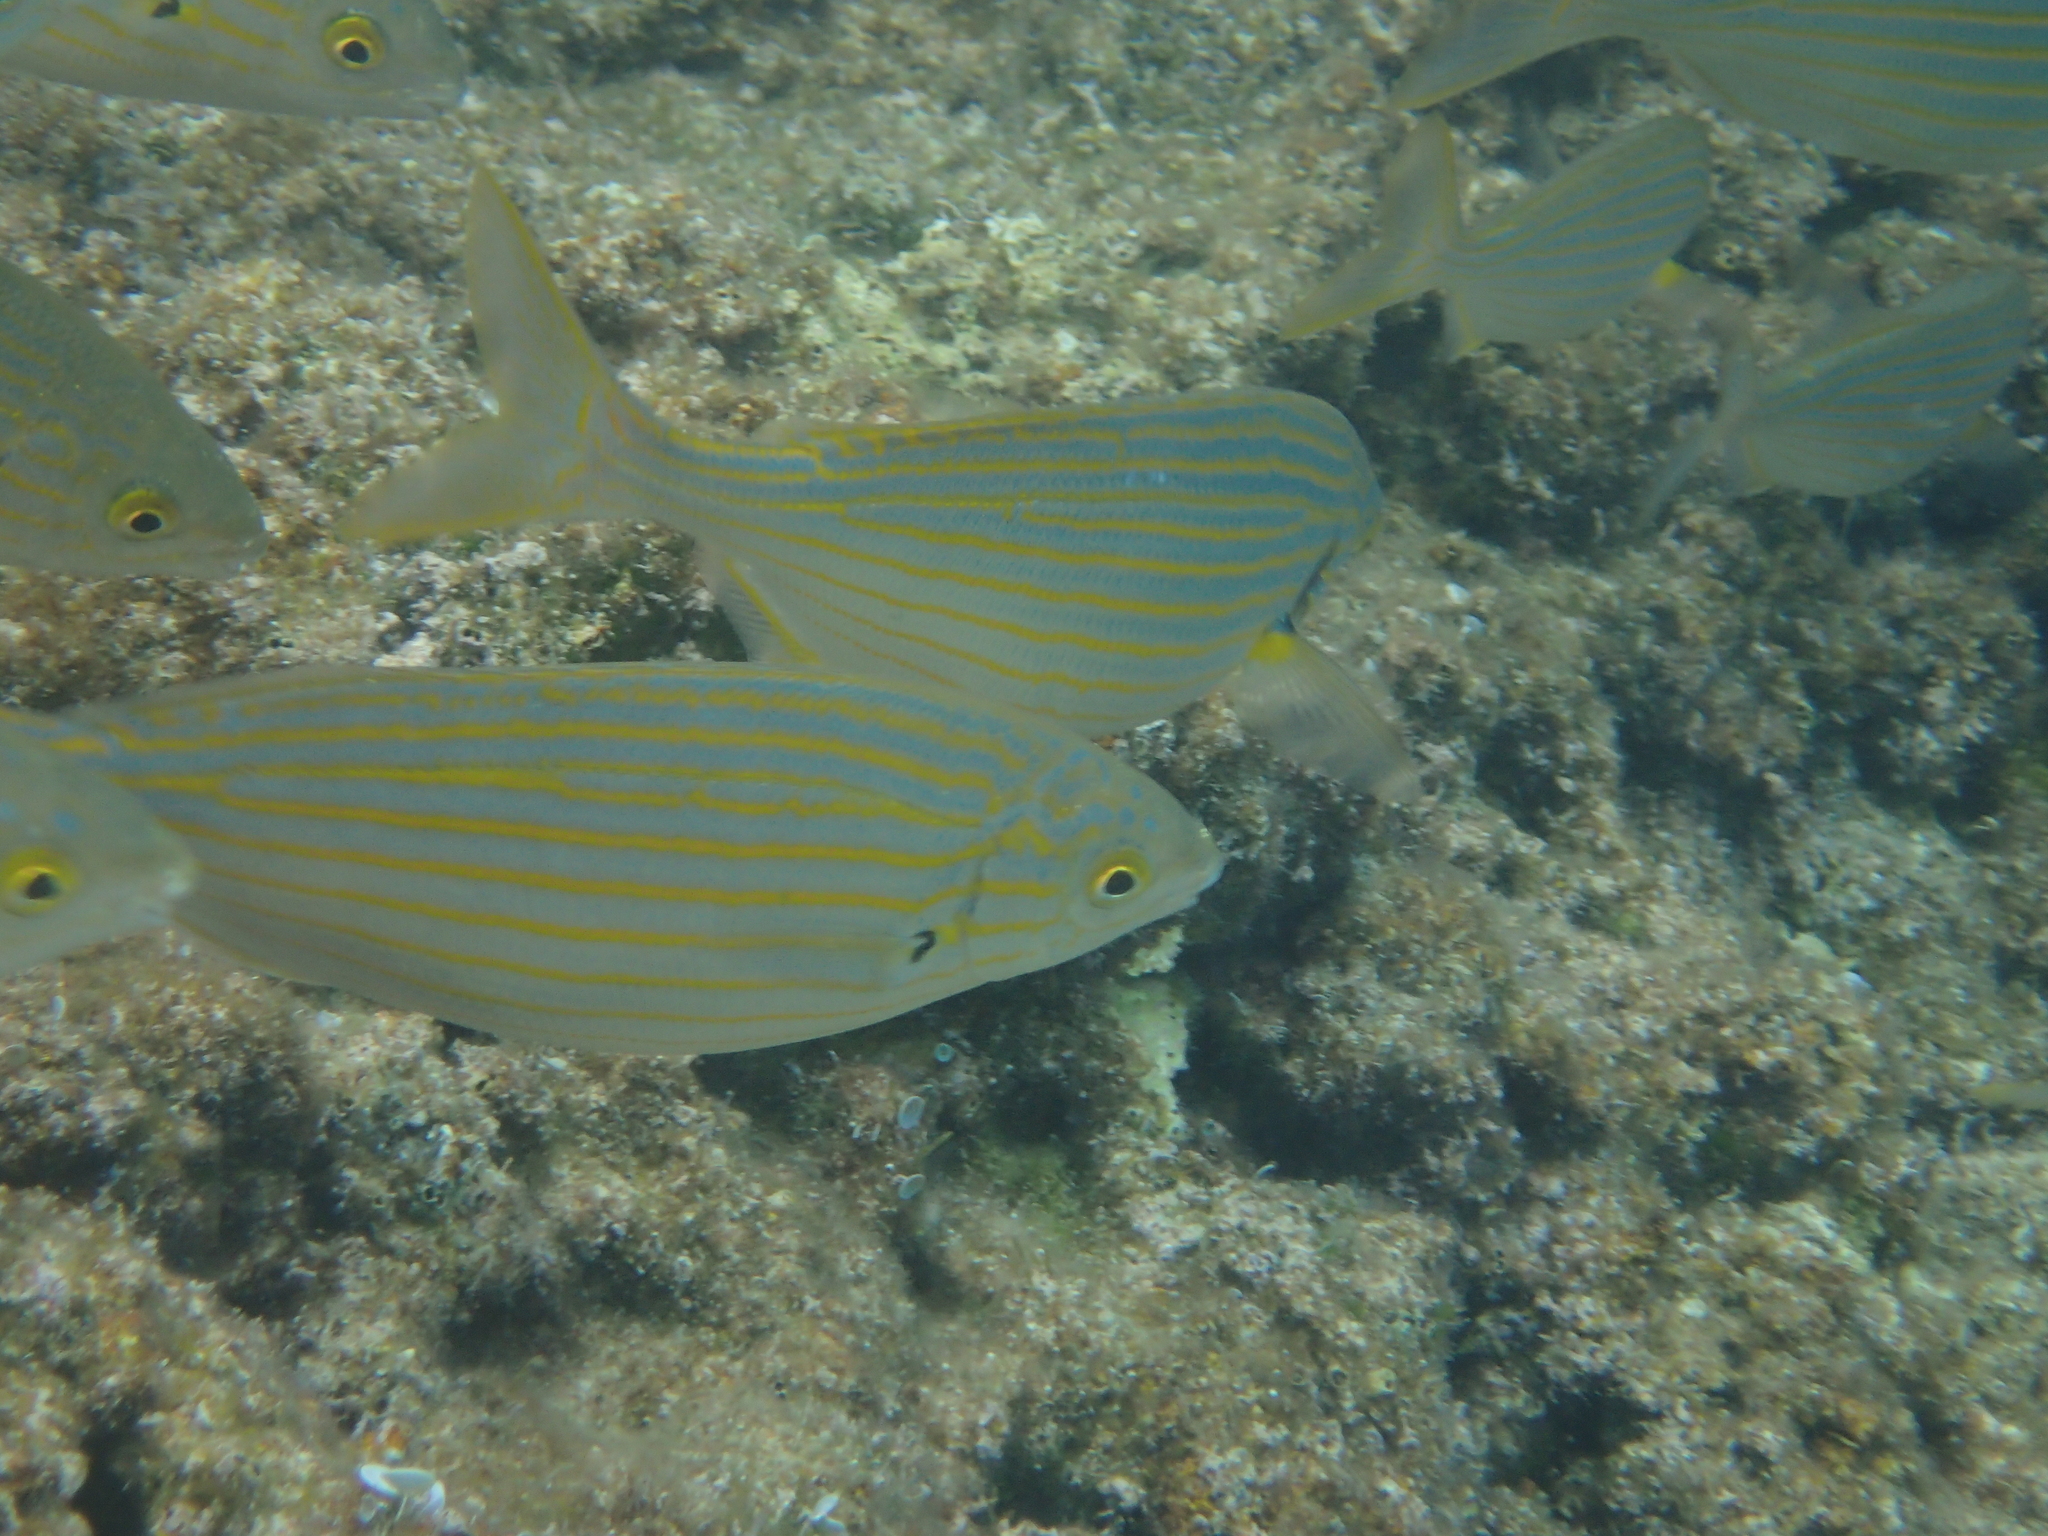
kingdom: Animalia
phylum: Chordata
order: Perciformes
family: Sparidae
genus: Sarpa
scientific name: Sarpa salpa
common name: Salema
